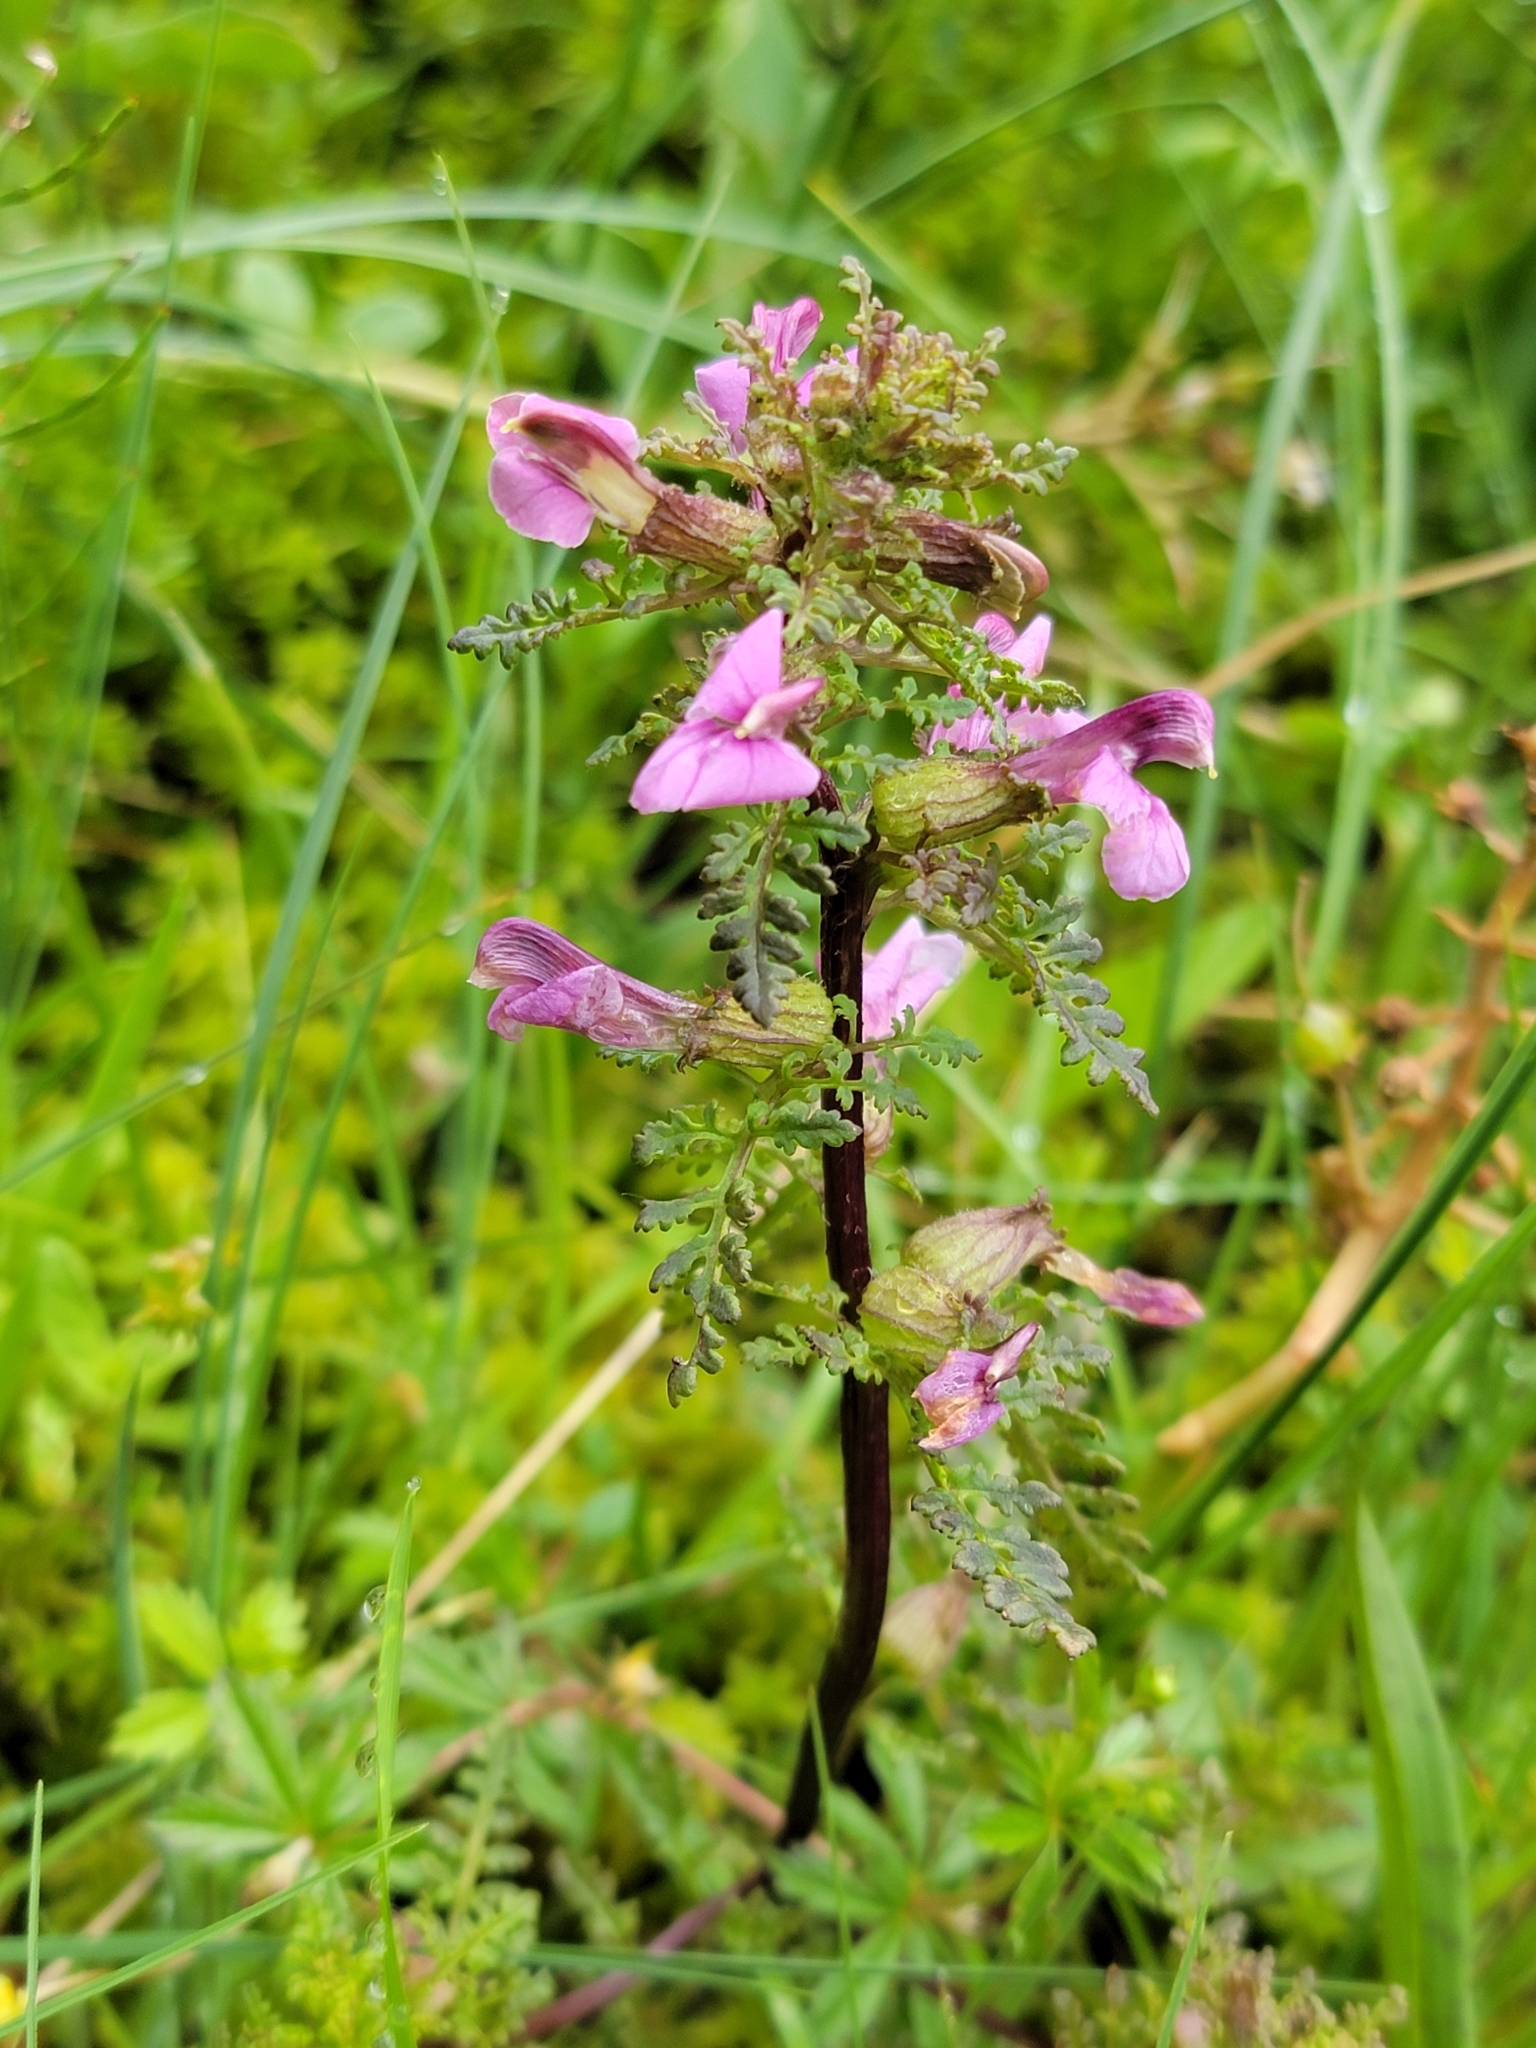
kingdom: Plantae
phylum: Tracheophyta
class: Magnoliopsida
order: Lamiales
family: Orobanchaceae
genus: Pedicularis
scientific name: Pedicularis palustris
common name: Marsh lousewort
